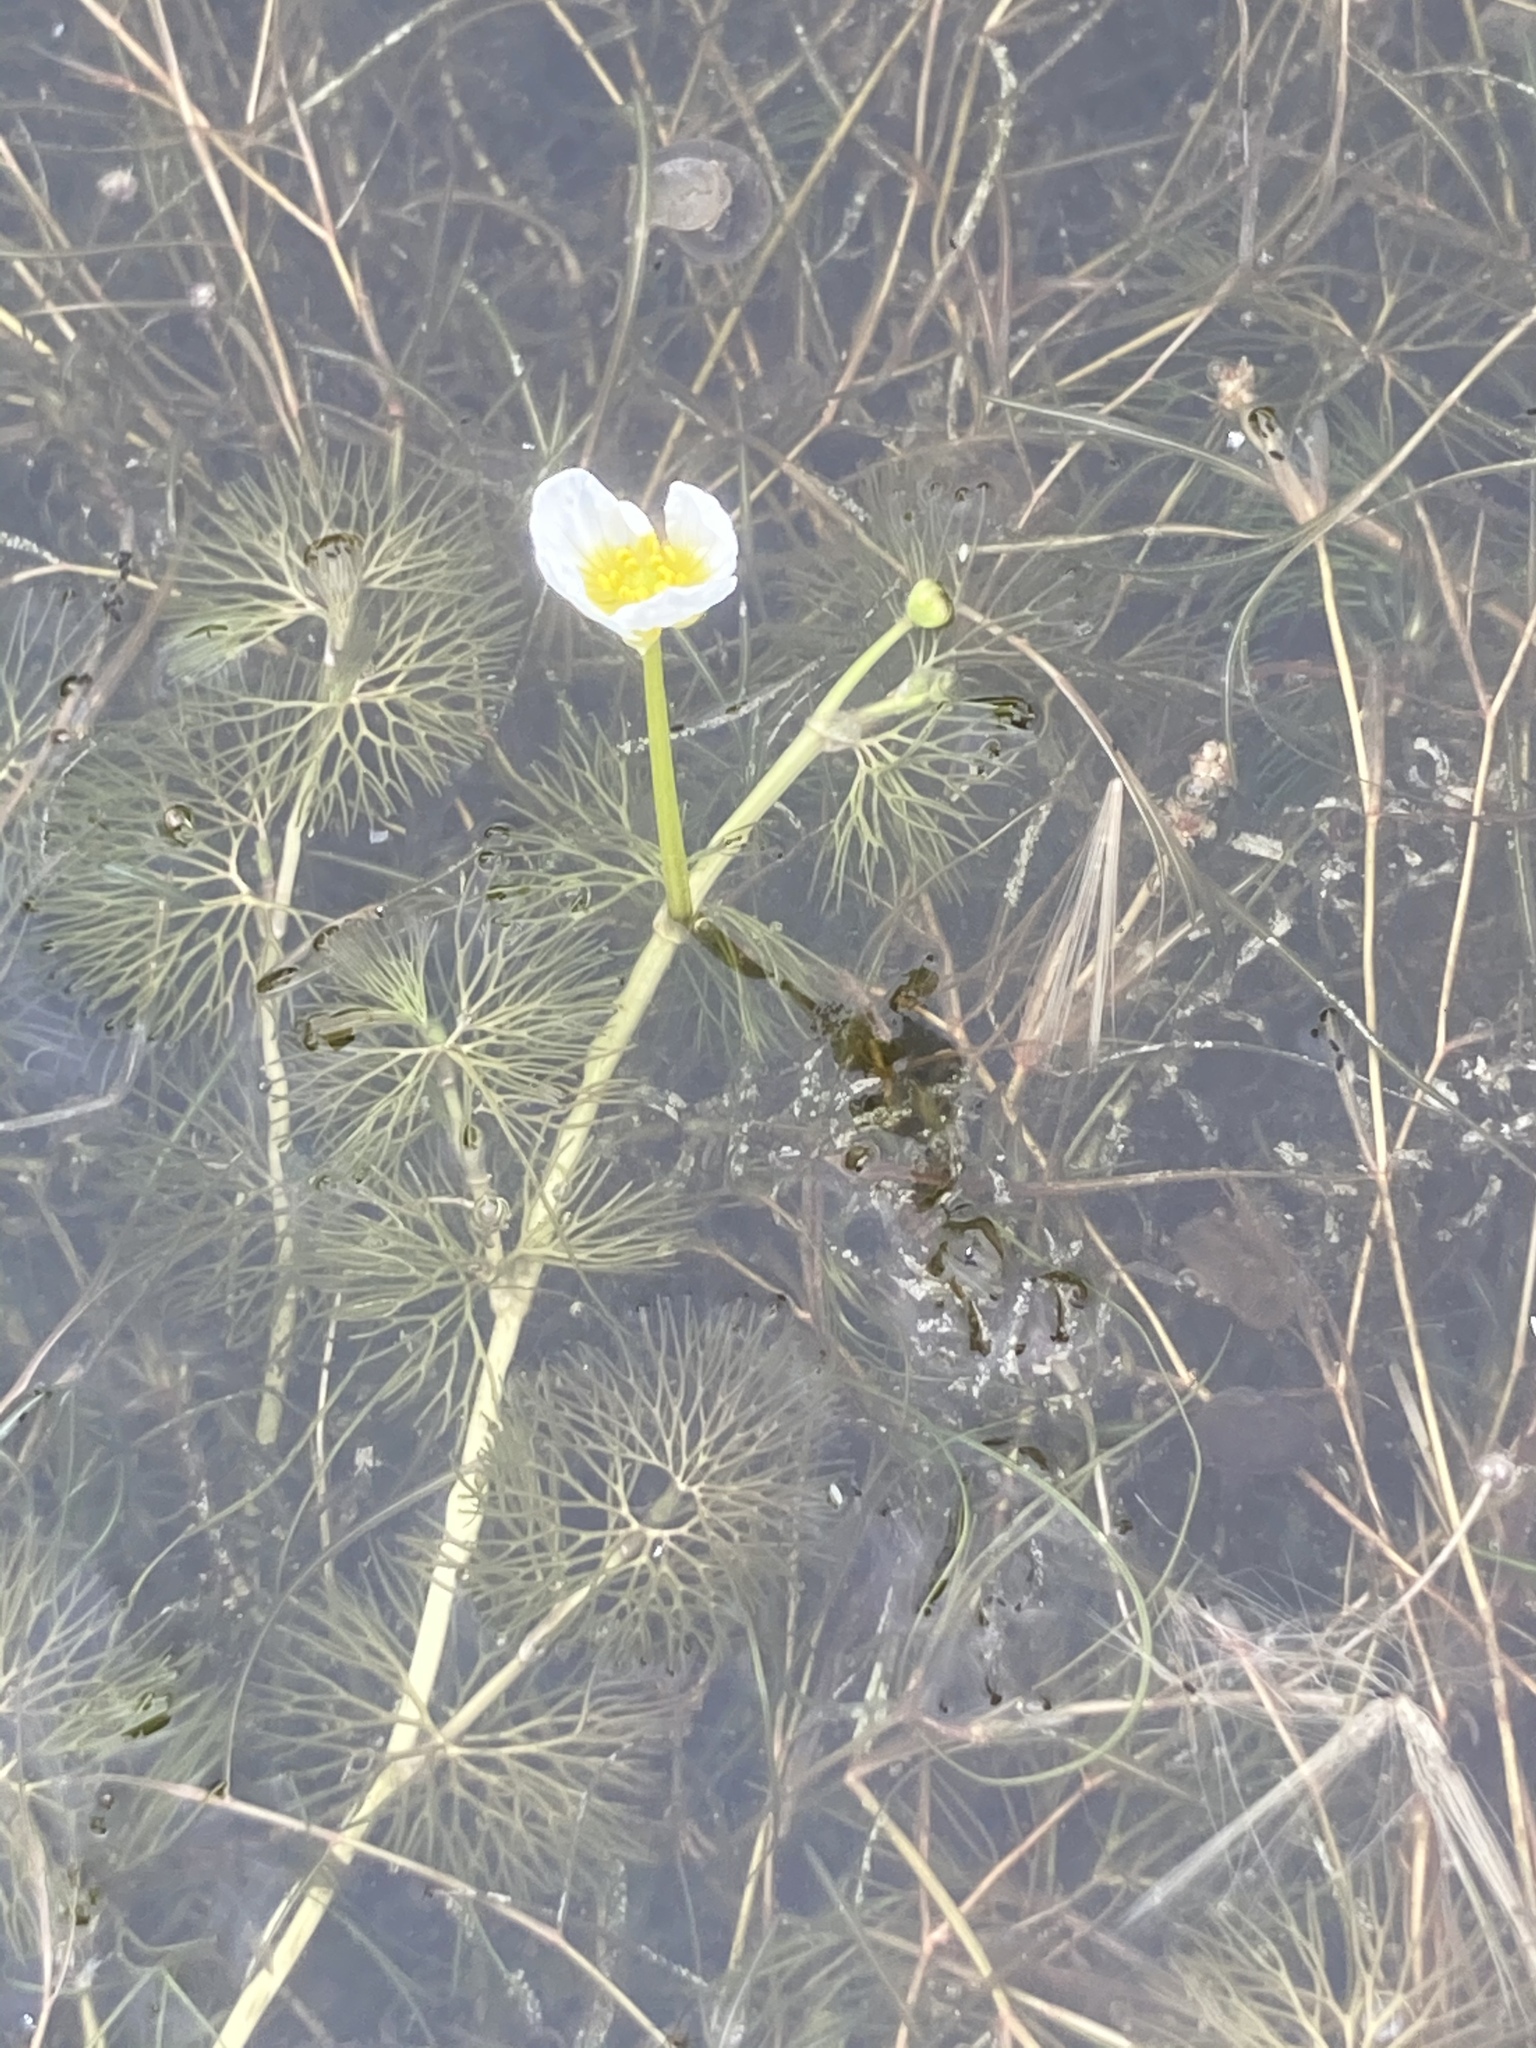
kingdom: Plantae
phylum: Tracheophyta
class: Magnoliopsida
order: Ranunculales
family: Ranunculaceae
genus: Ranunculus
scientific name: Ranunculus circinatus
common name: Fan-leaved water-crowfoot
